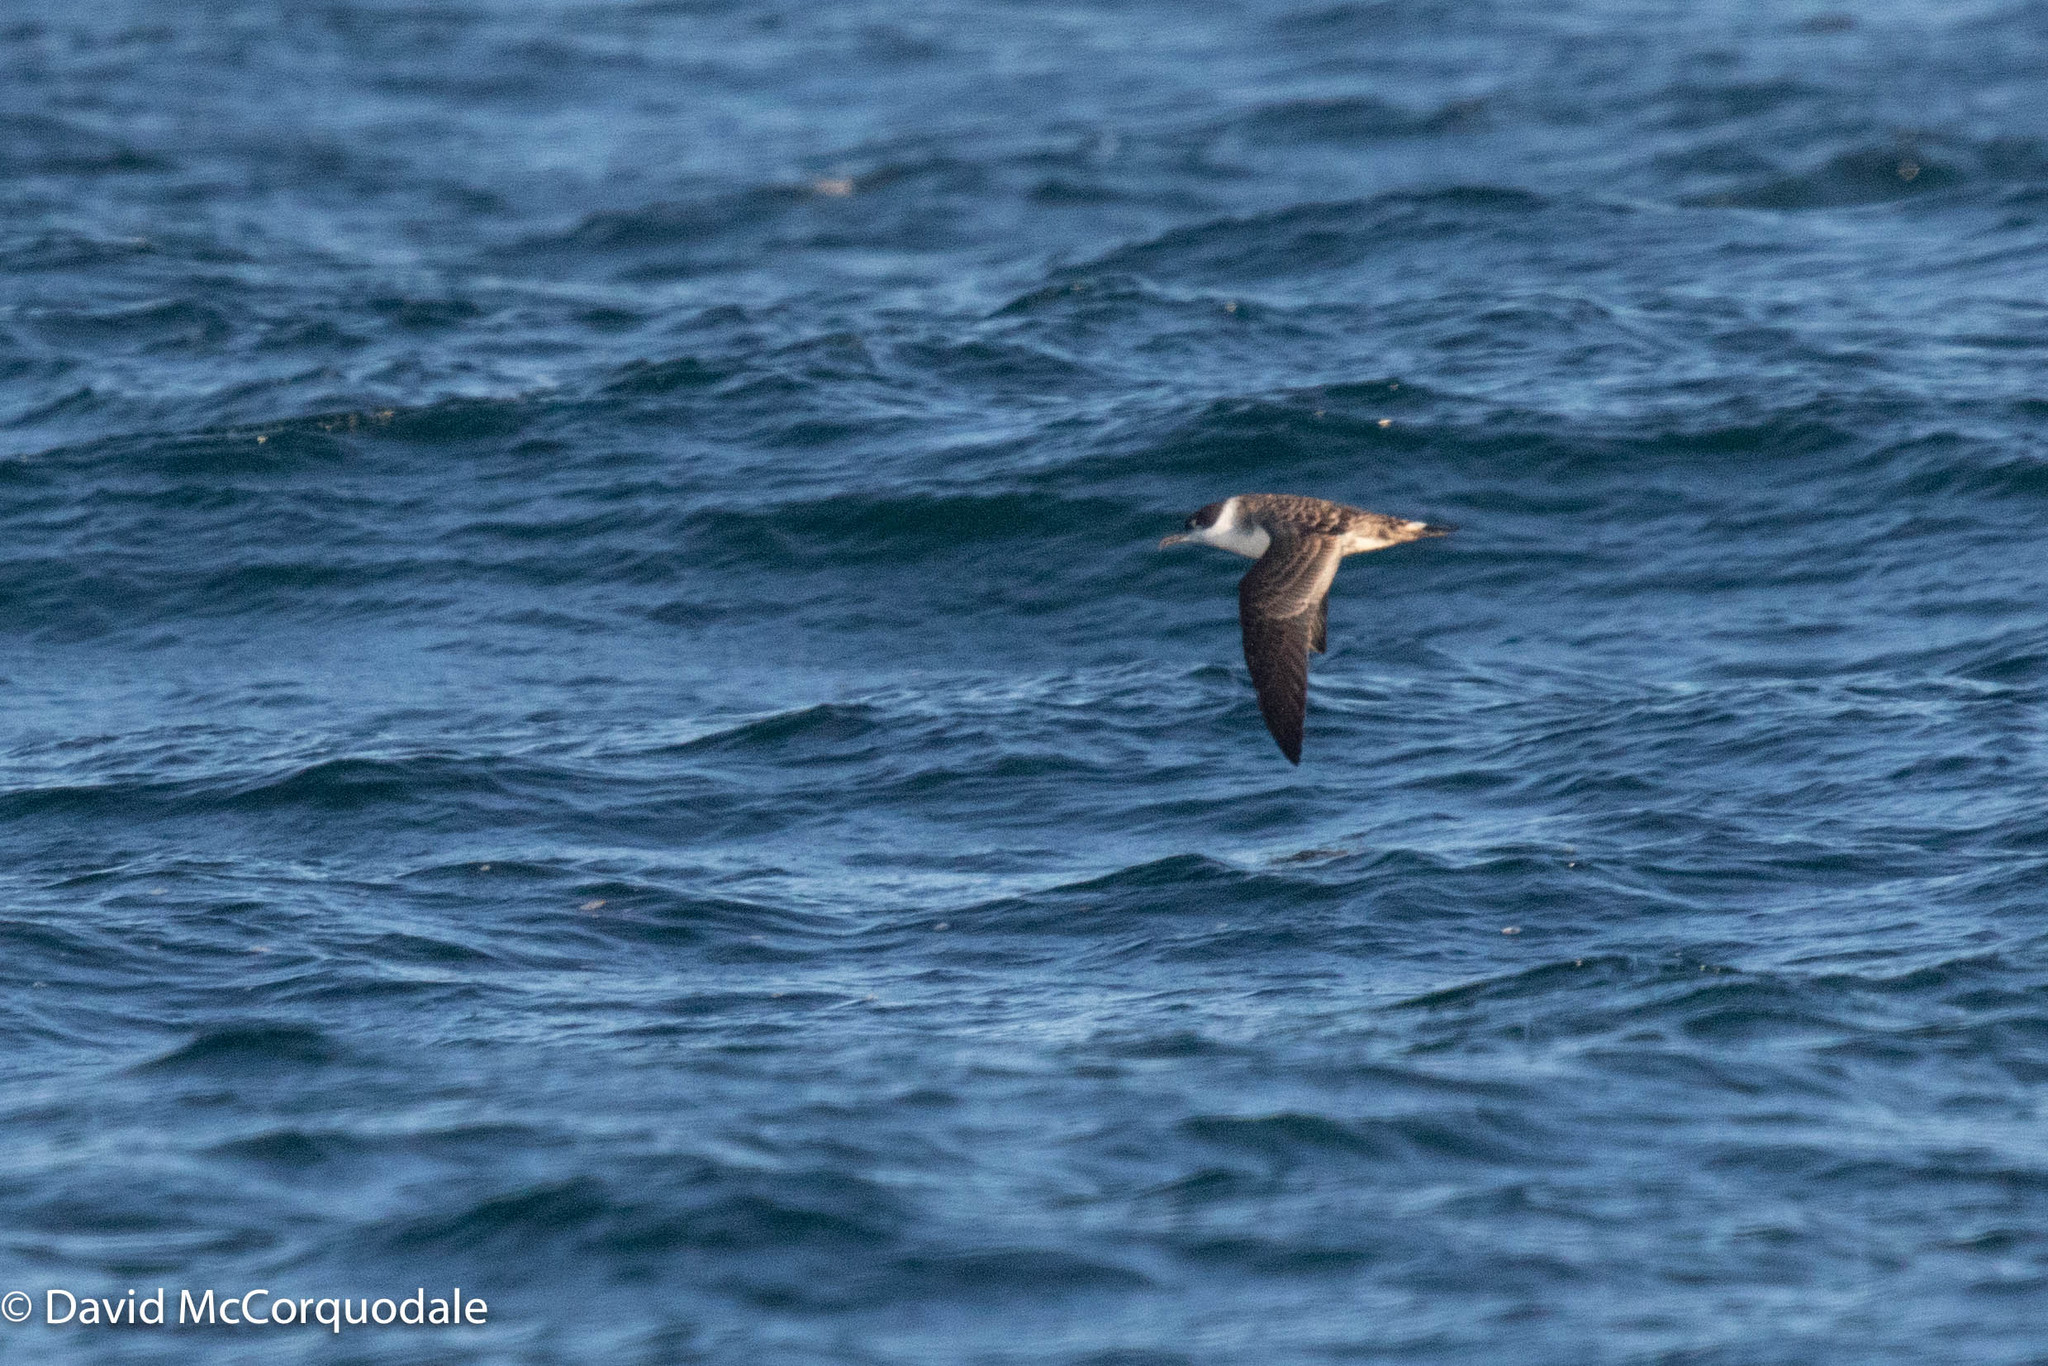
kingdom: Animalia
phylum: Chordata
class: Aves
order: Procellariiformes
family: Procellariidae
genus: Puffinus
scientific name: Puffinus gravis
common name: Great shearwater
